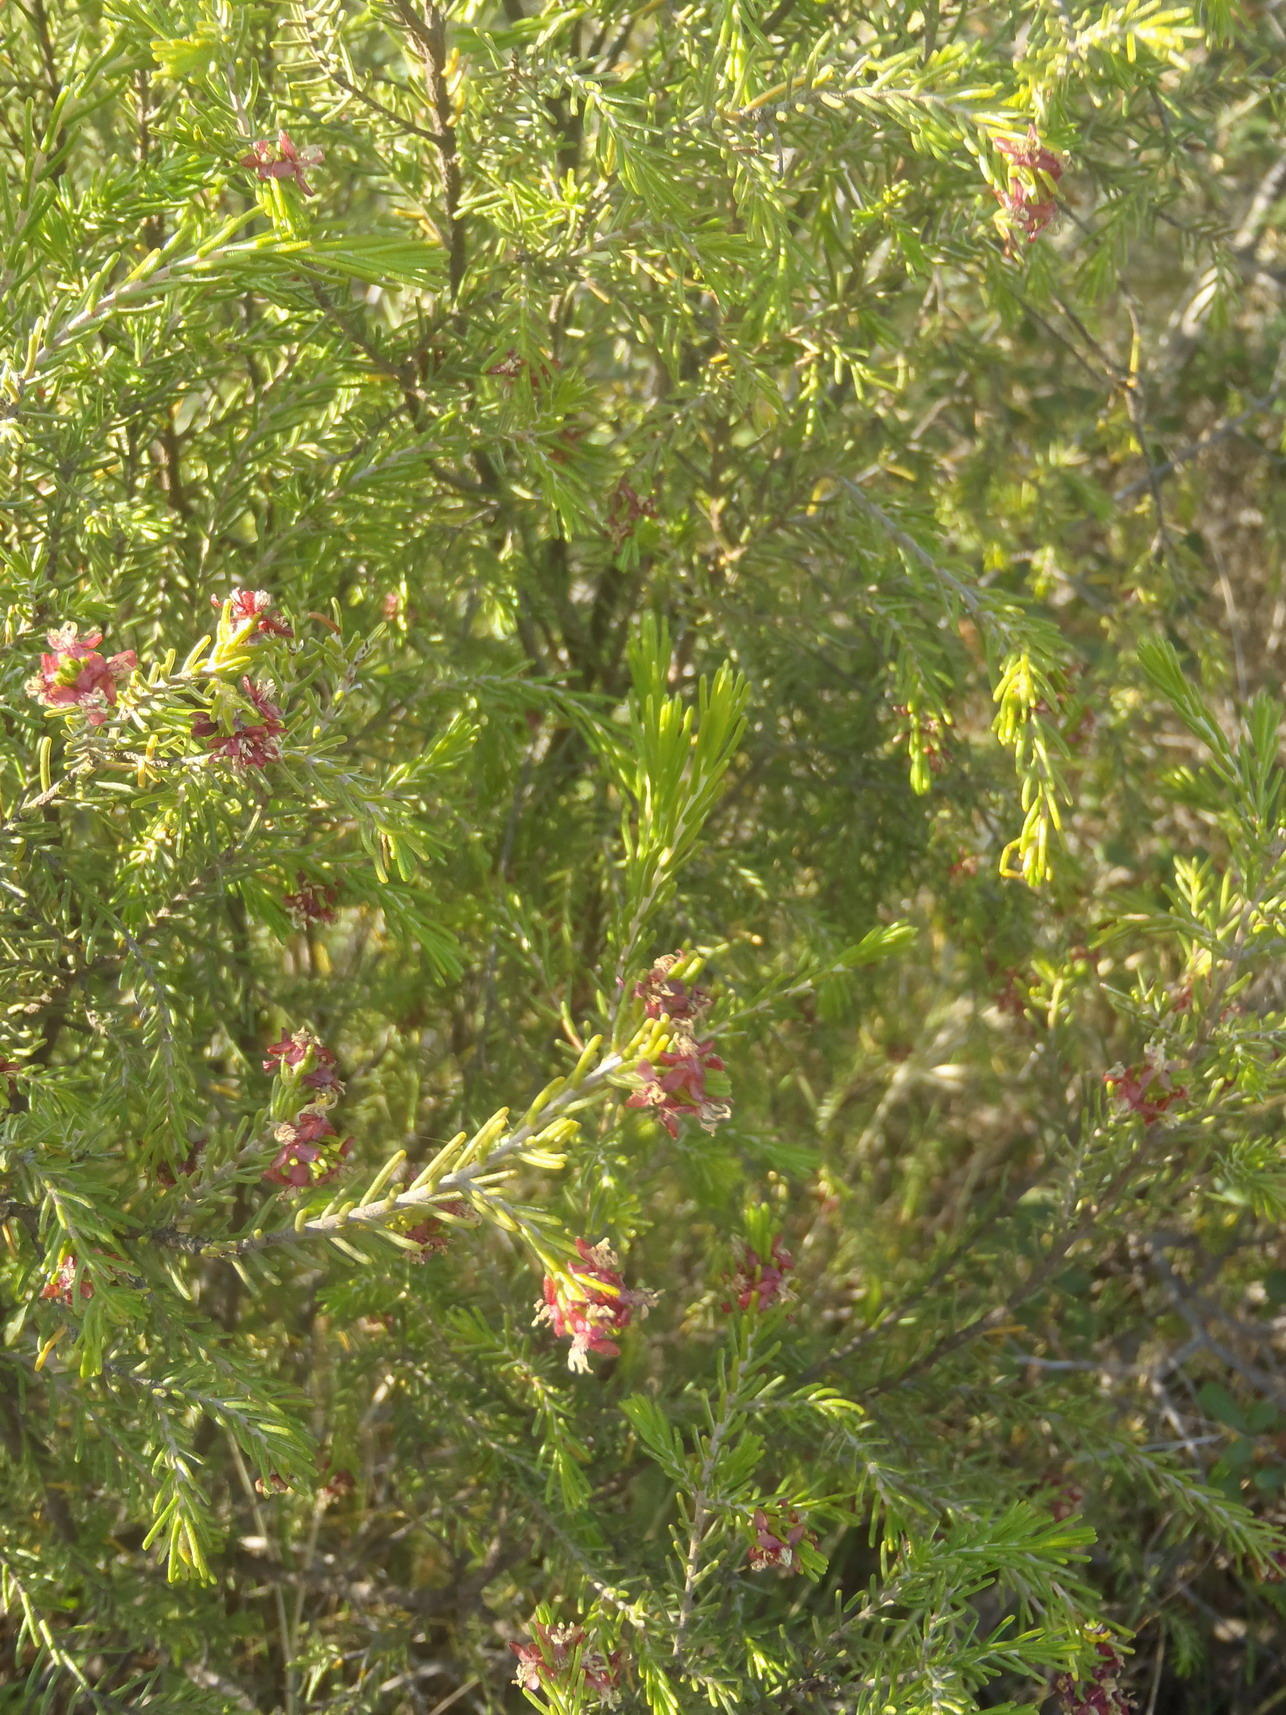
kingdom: Plantae
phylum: Tracheophyta
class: Magnoliopsida
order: Malvales
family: Thymelaeaceae
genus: Passerina
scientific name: Passerina obtusifolia
